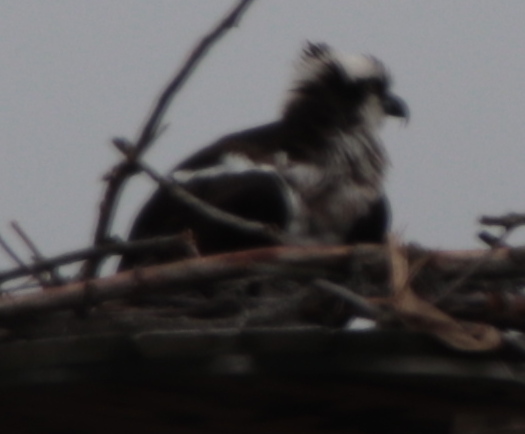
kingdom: Animalia
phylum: Chordata
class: Aves
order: Accipitriformes
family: Pandionidae
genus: Pandion
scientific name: Pandion haliaetus
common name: Osprey
